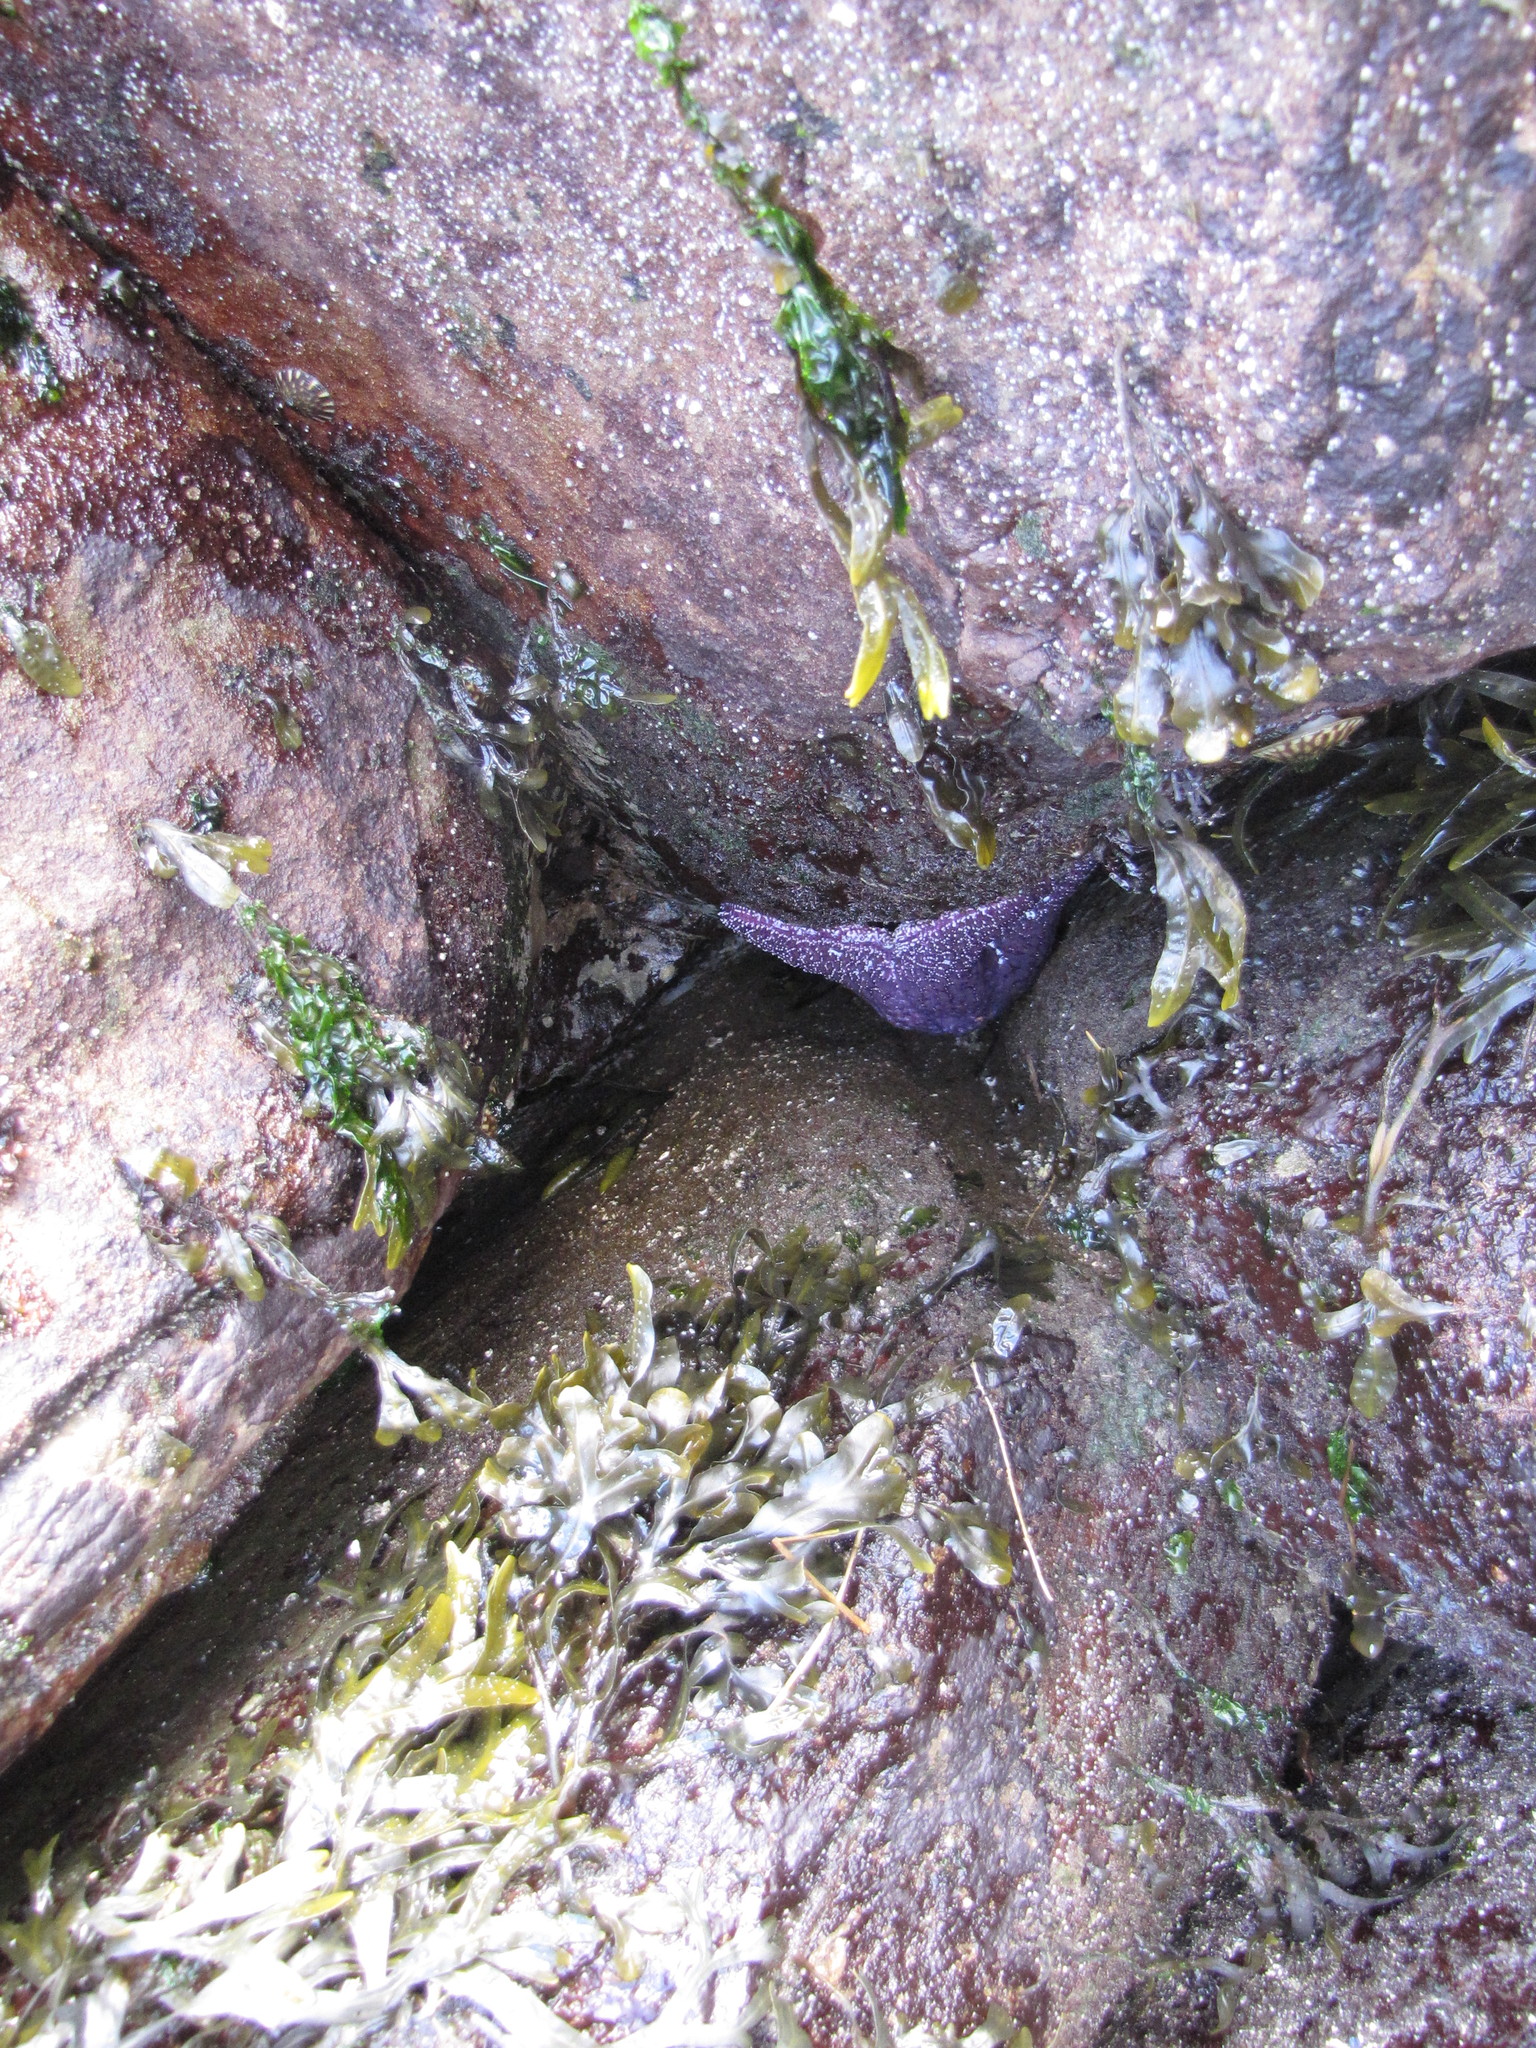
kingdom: Animalia
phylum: Echinodermata
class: Asteroidea
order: Forcipulatida
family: Asteriidae
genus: Pisaster
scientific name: Pisaster ochraceus
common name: Ochre stars
